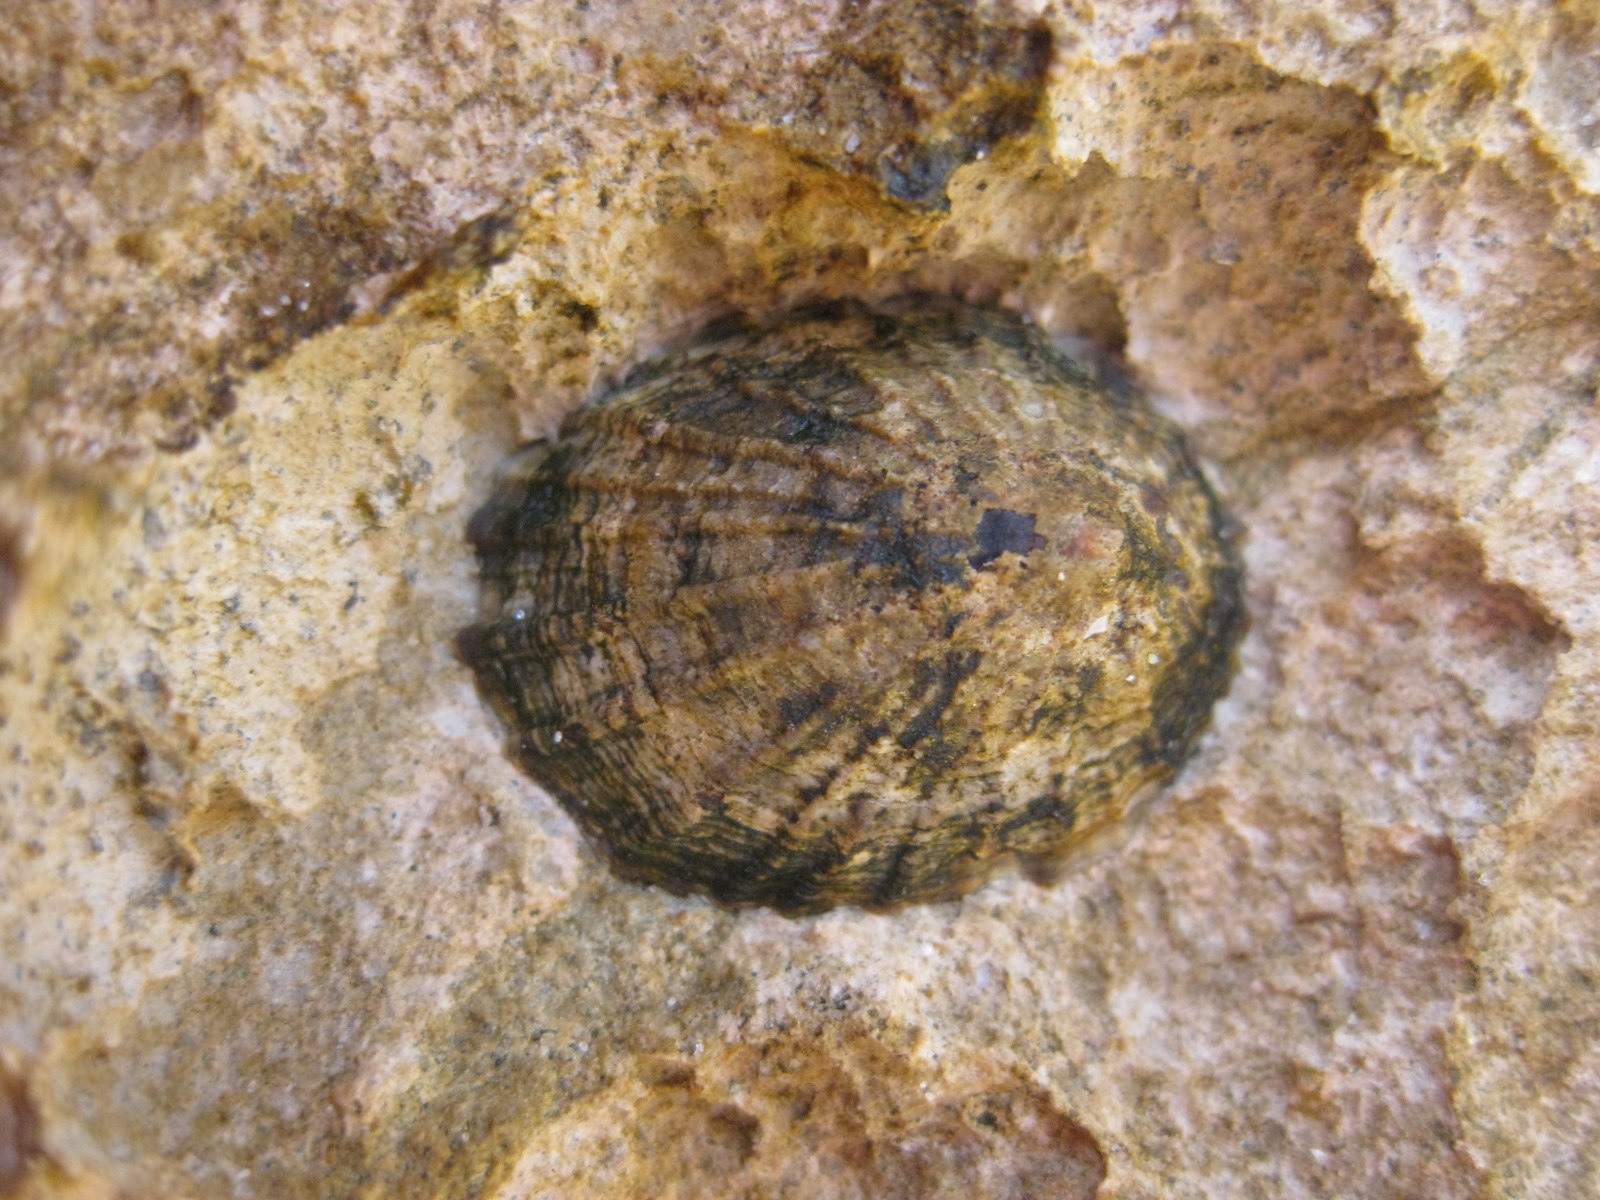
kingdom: Animalia
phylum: Mollusca
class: Gastropoda
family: Nacellidae
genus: Cellana
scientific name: Cellana radians
